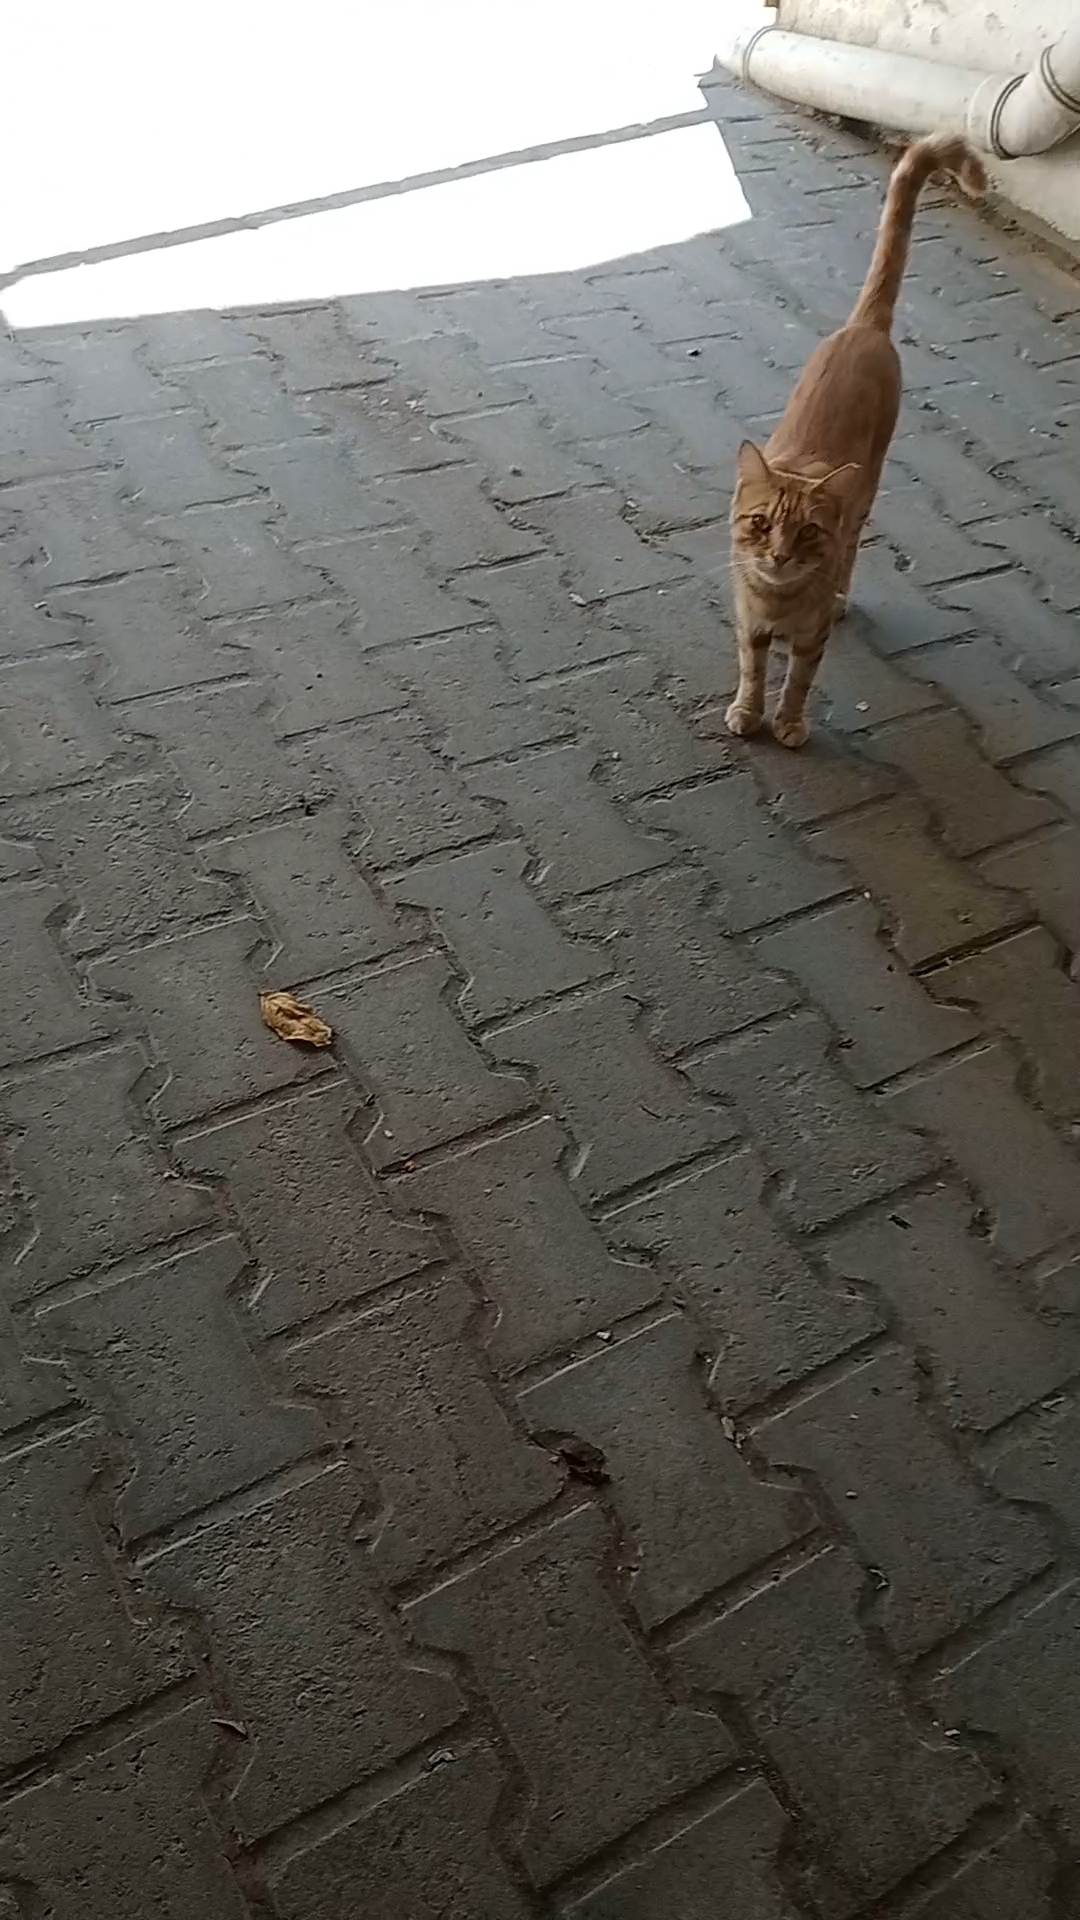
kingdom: Animalia
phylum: Chordata
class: Mammalia
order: Carnivora
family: Felidae
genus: Felis
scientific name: Felis catus
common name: Domestic cat
